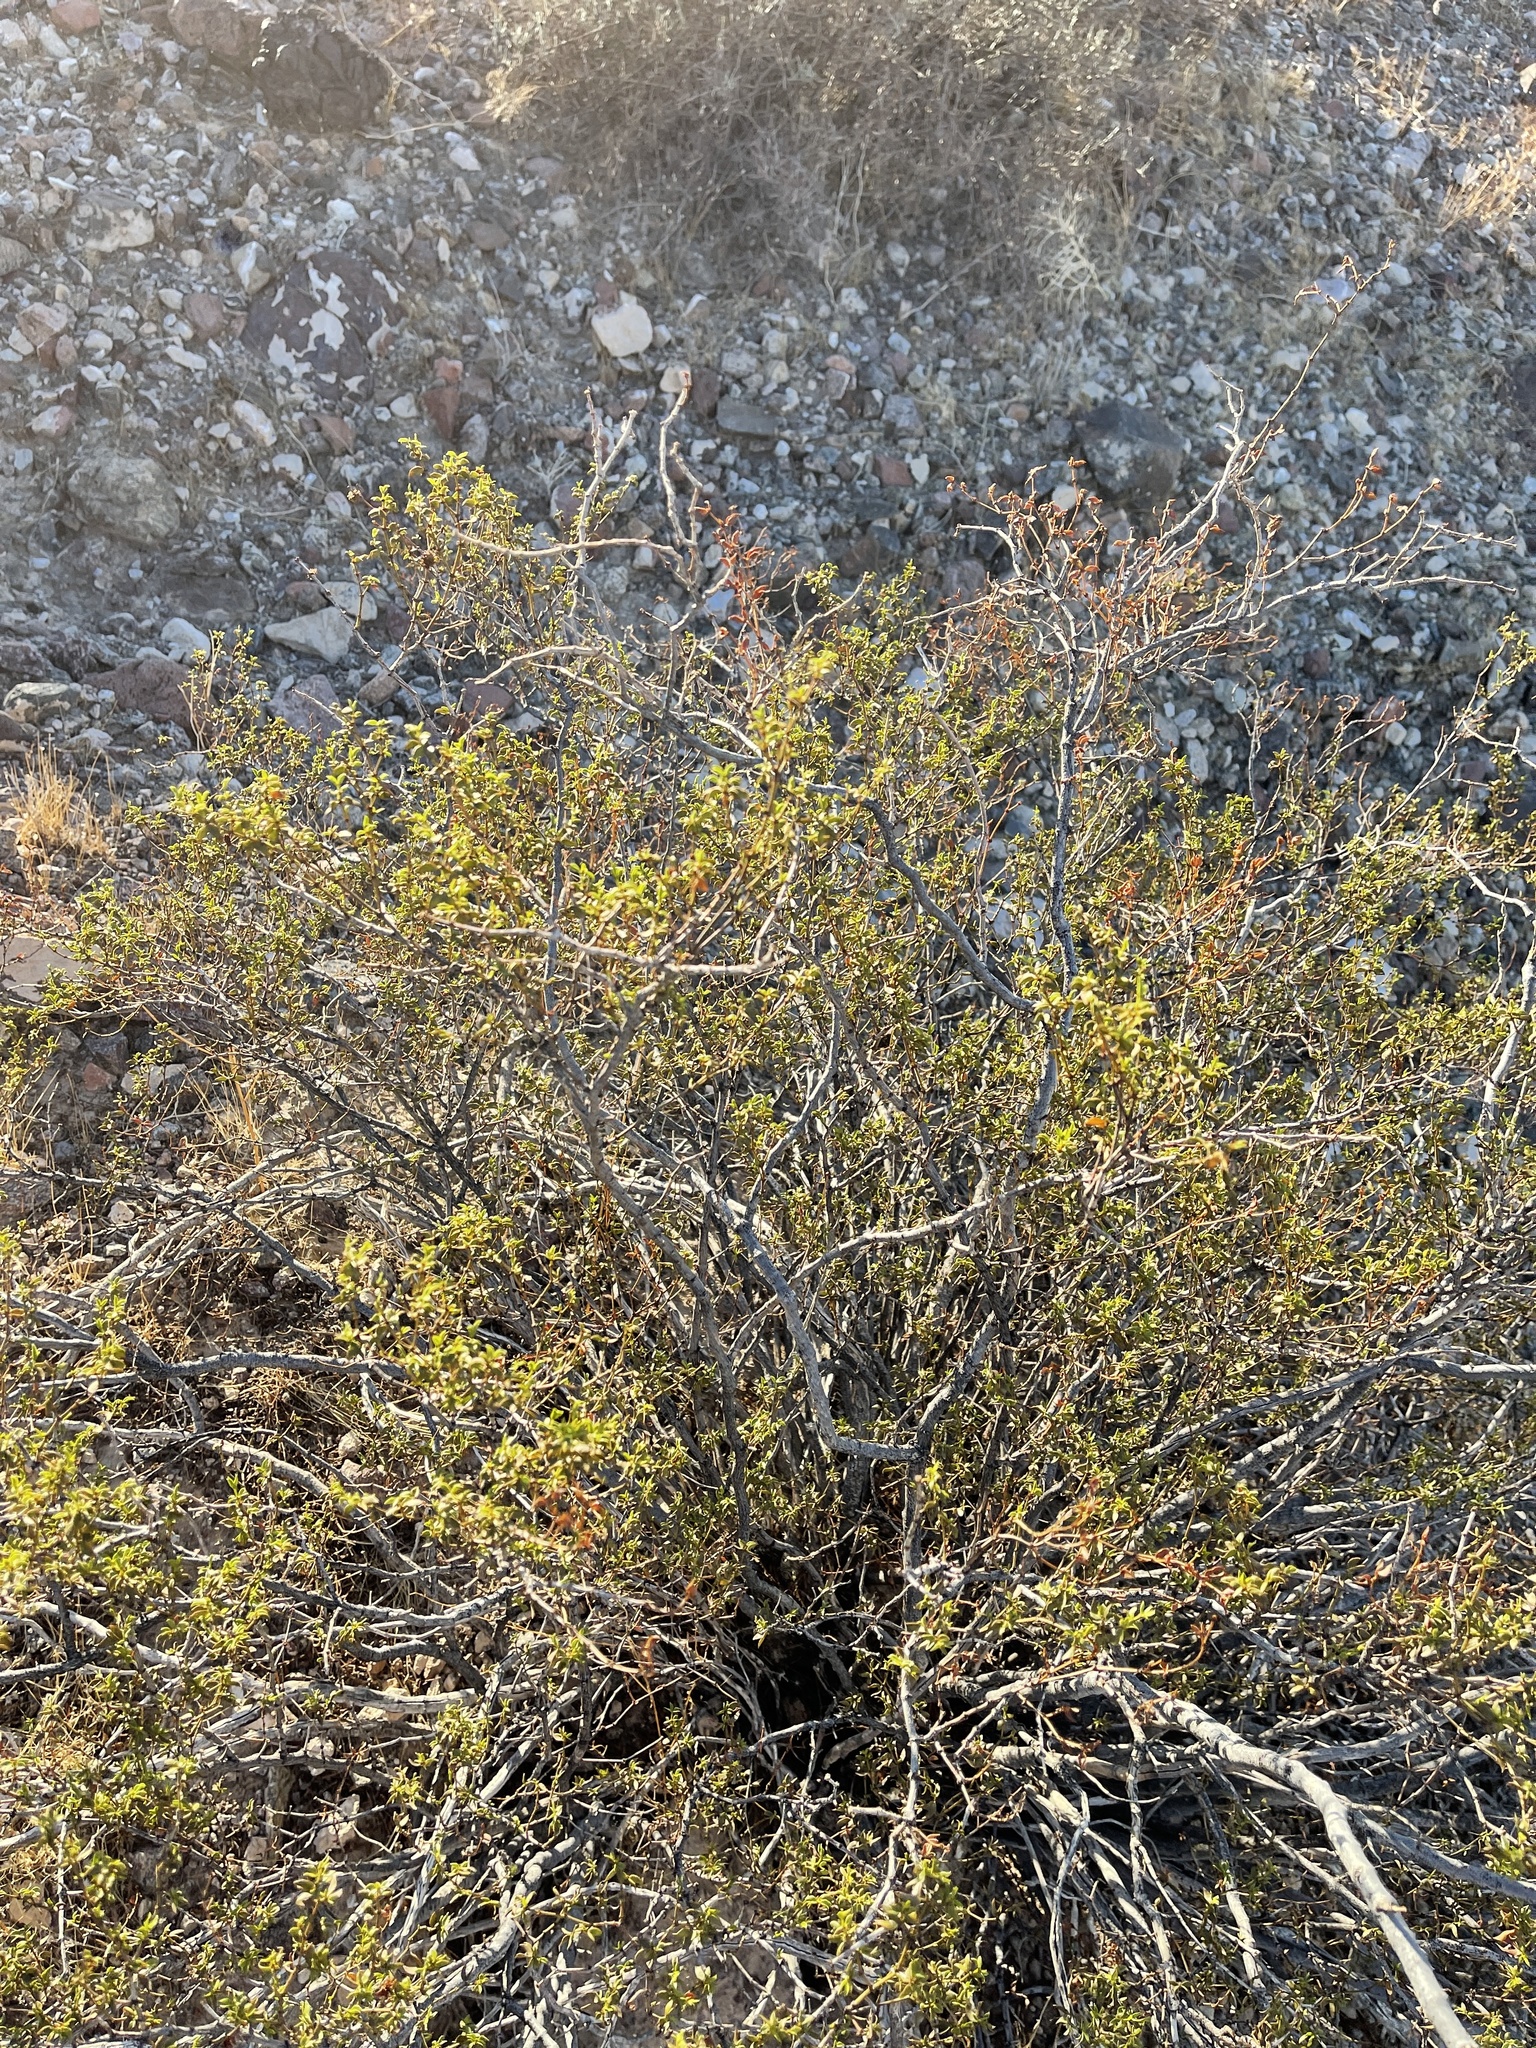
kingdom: Plantae
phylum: Tracheophyta
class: Magnoliopsida
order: Zygophyllales
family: Zygophyllaceae
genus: Larrea
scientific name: Larrea tridentata
